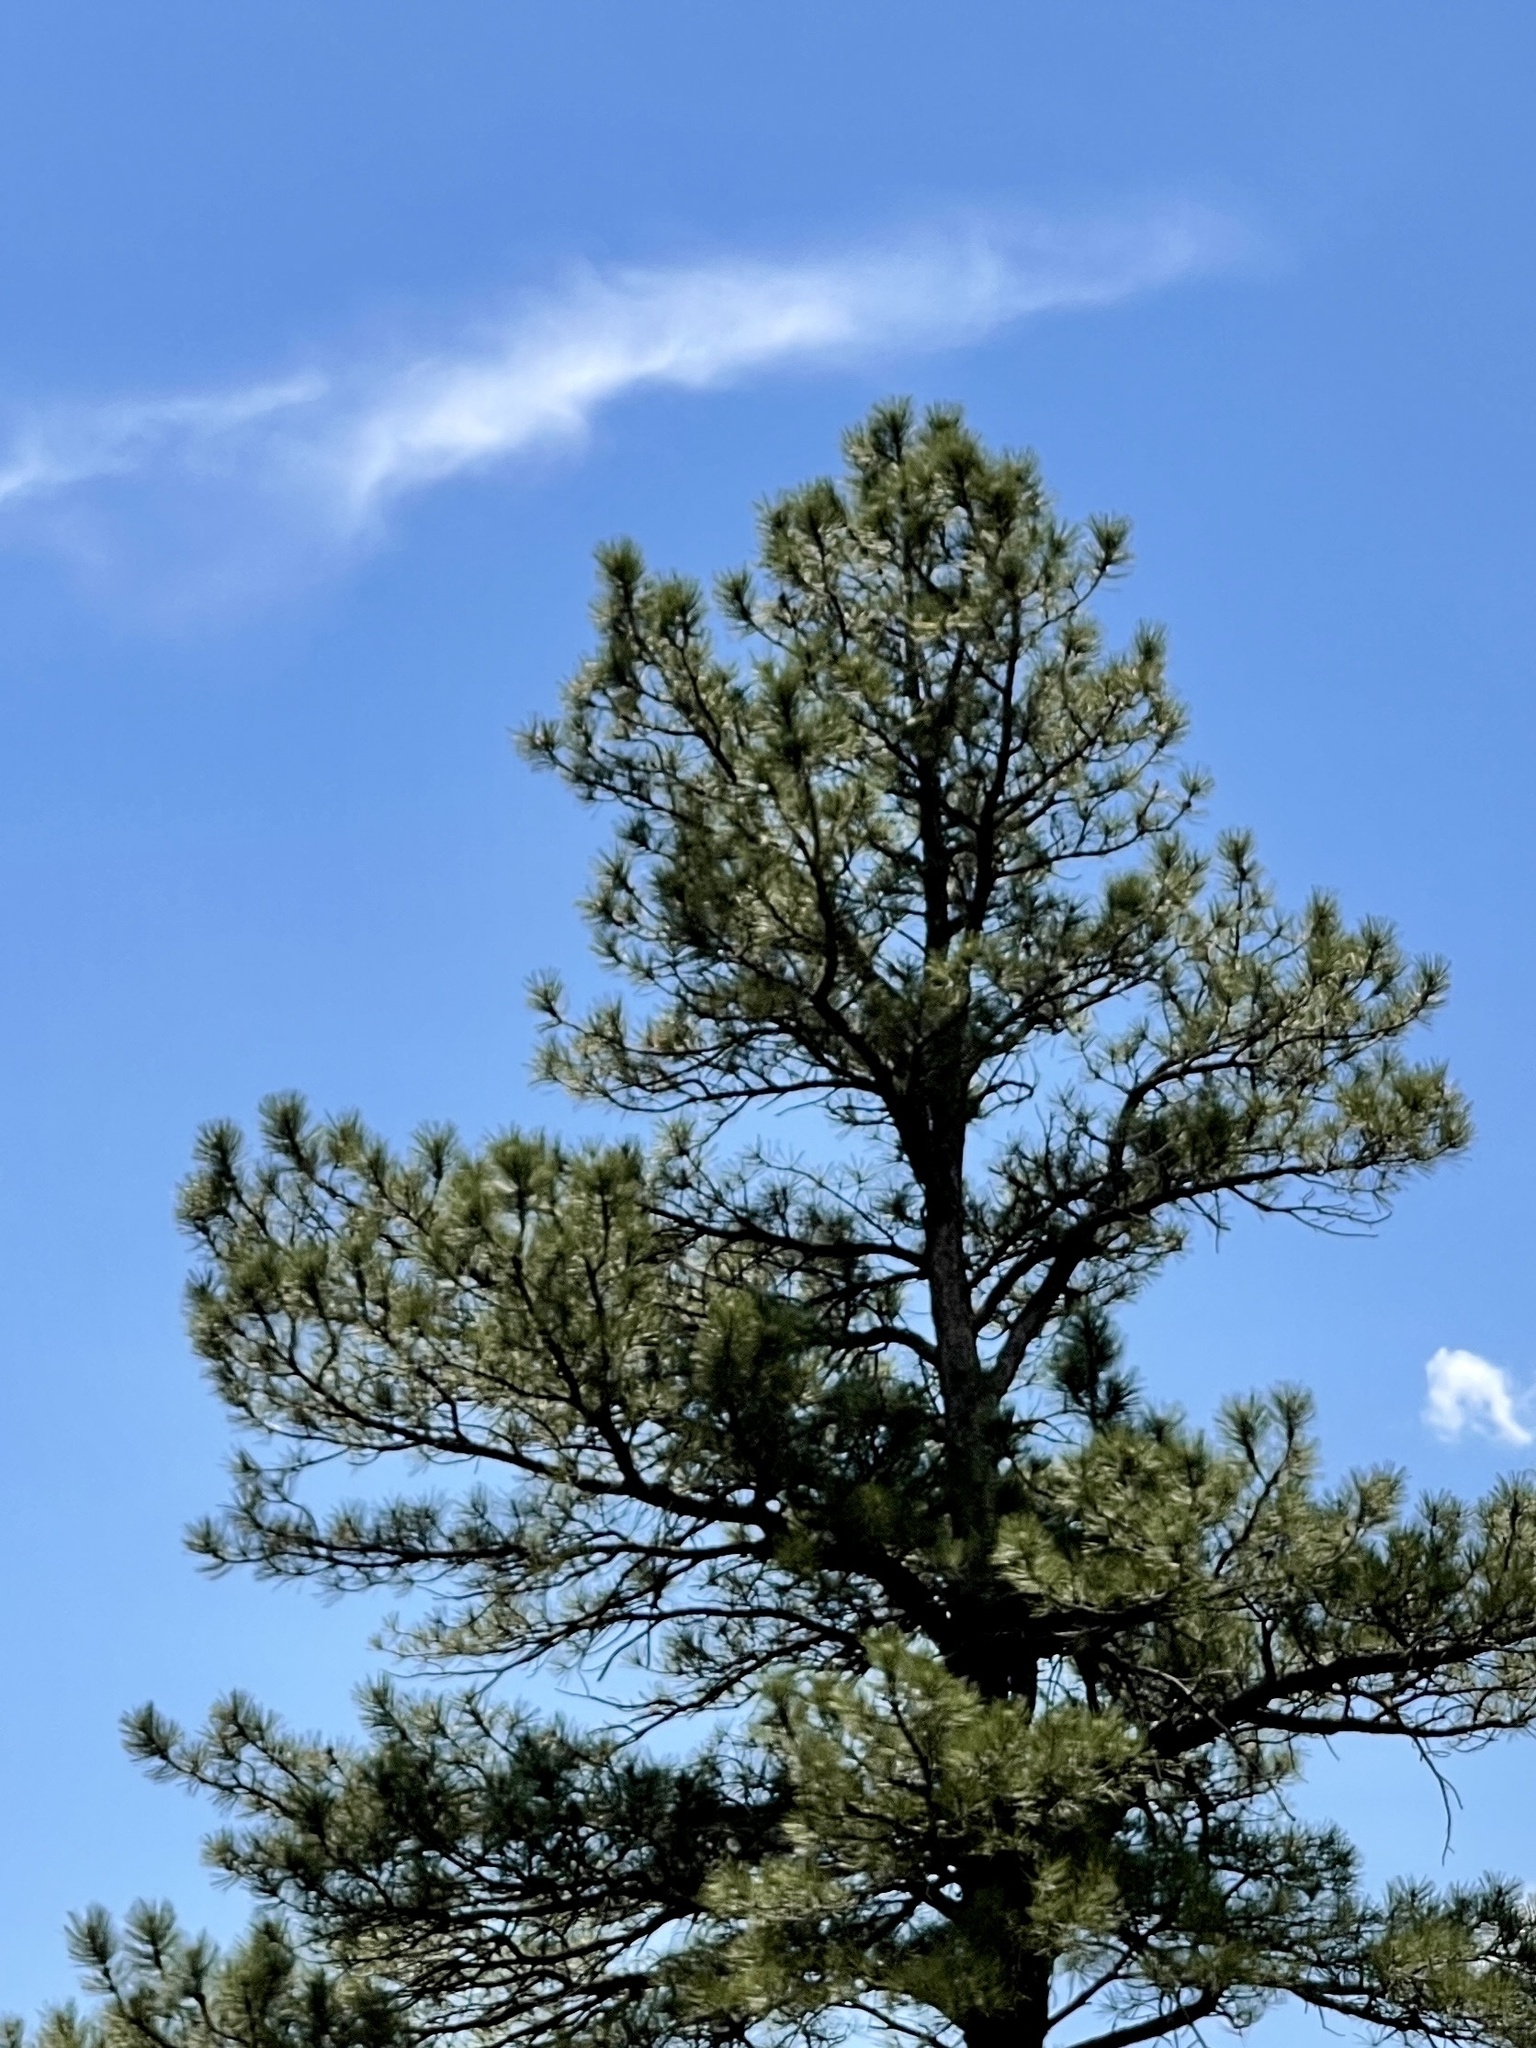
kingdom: Plantae
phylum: Tracheophyta
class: Pinopsida
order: Pinales
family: Pinaceae
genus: Pinus
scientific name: Pinus ponderosa
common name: Western yellow-pine
